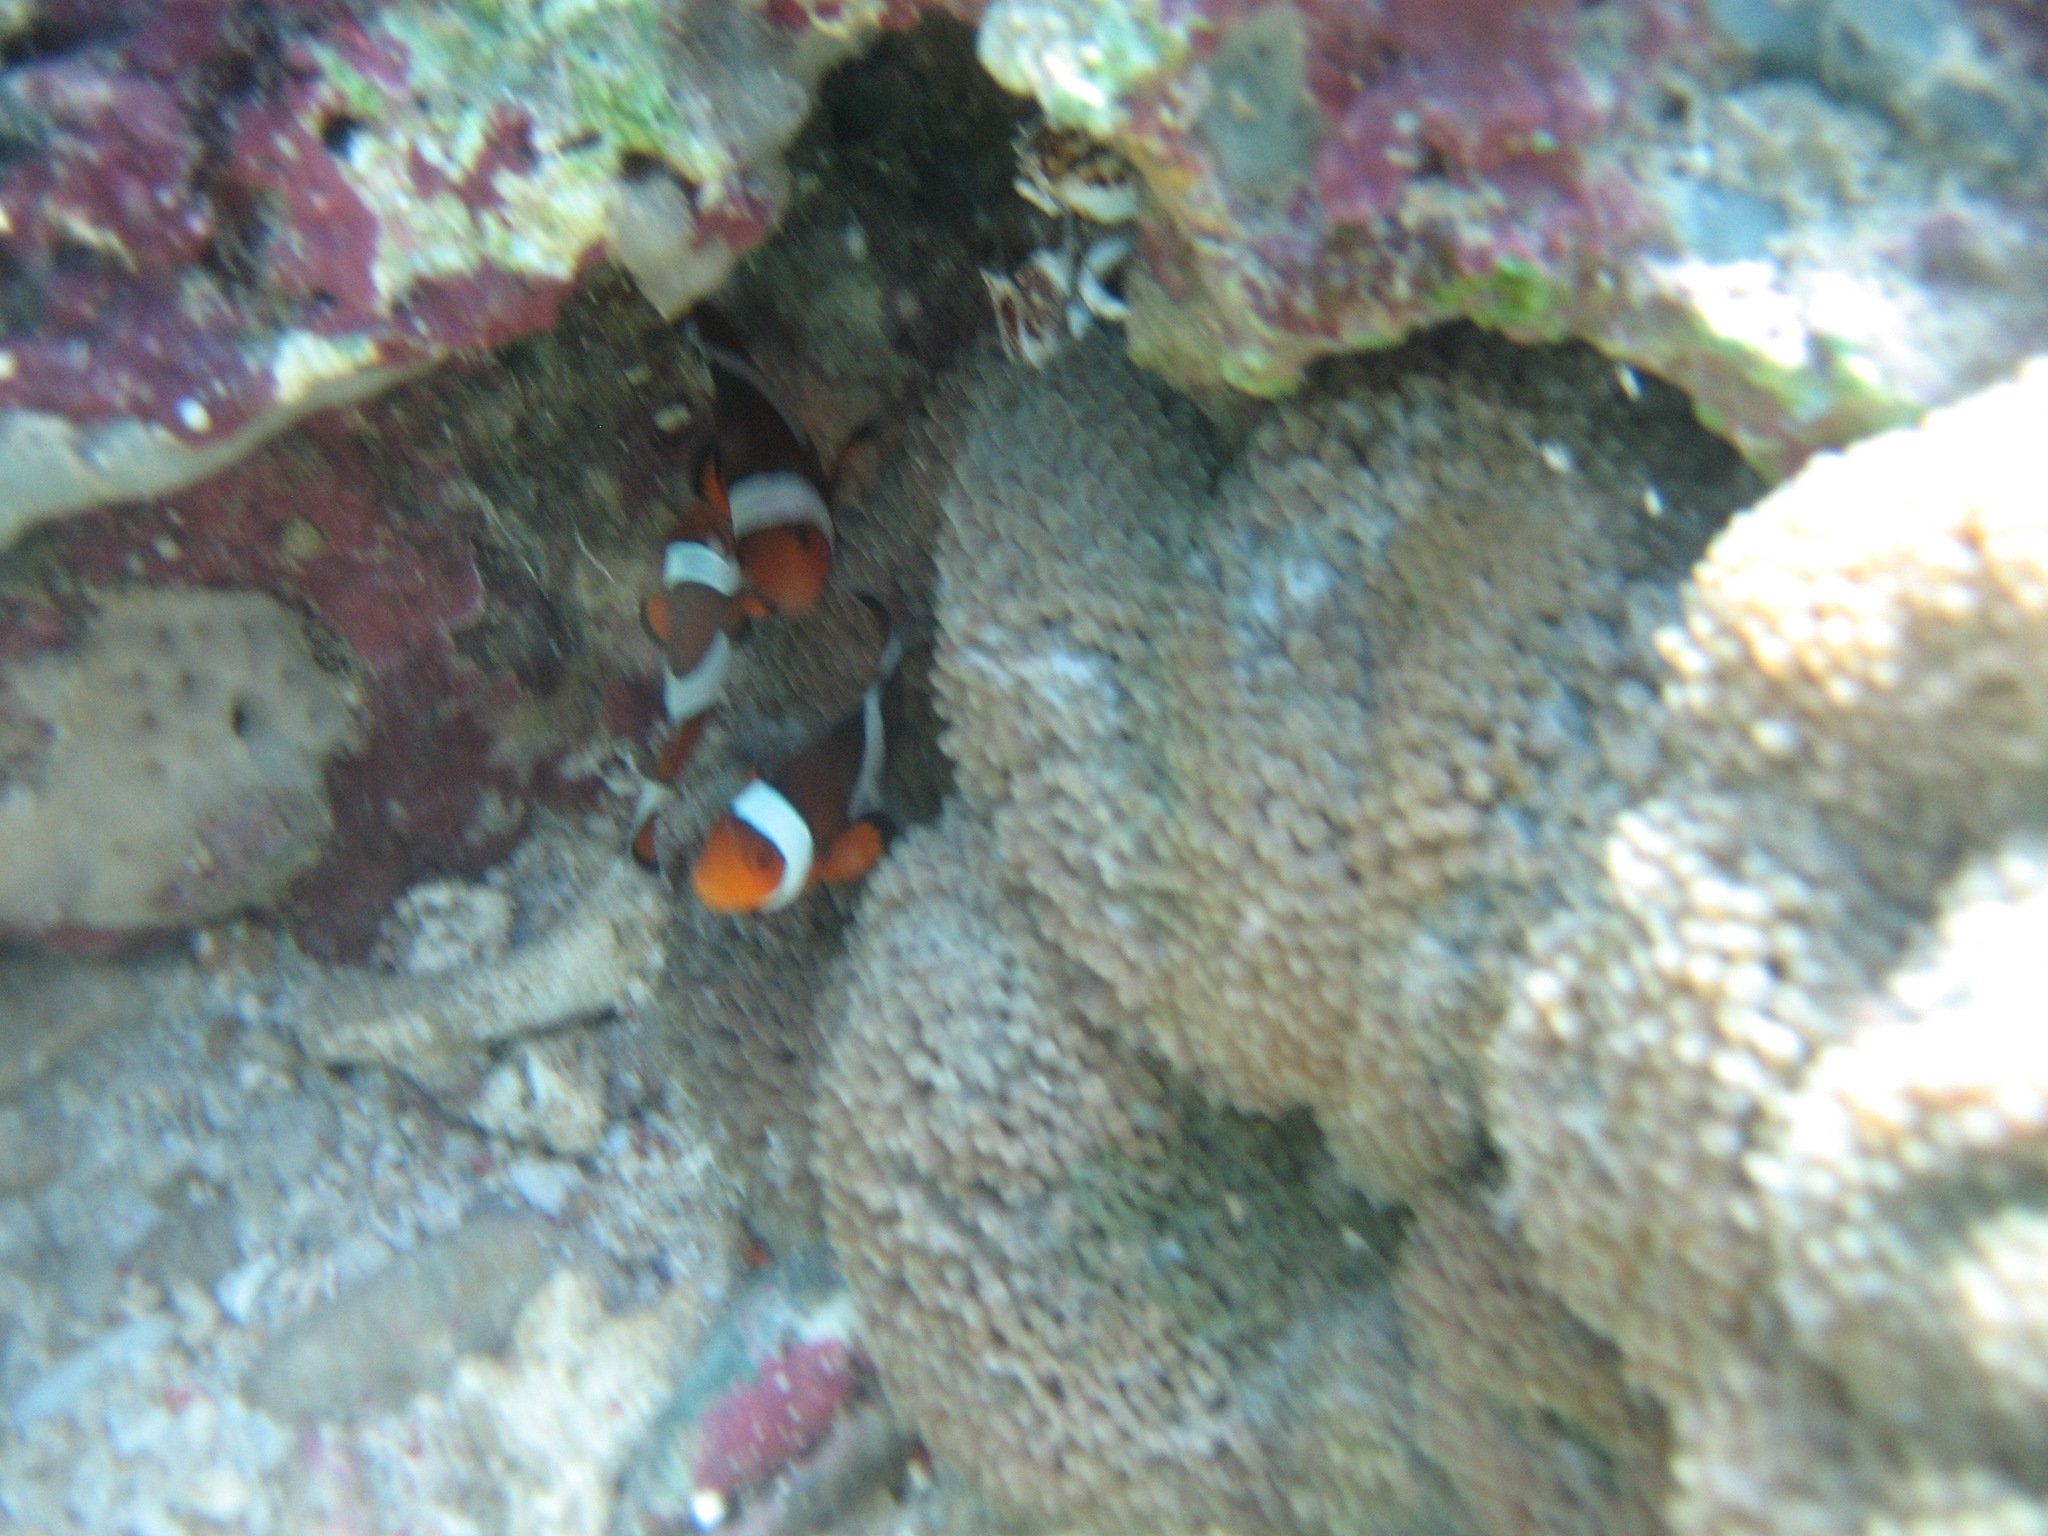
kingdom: Animalia
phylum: Chordata
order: Perciformes
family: Pomacentridae
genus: Amphiprion
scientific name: Amphiprion ocellaris
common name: Clown anemonefish
